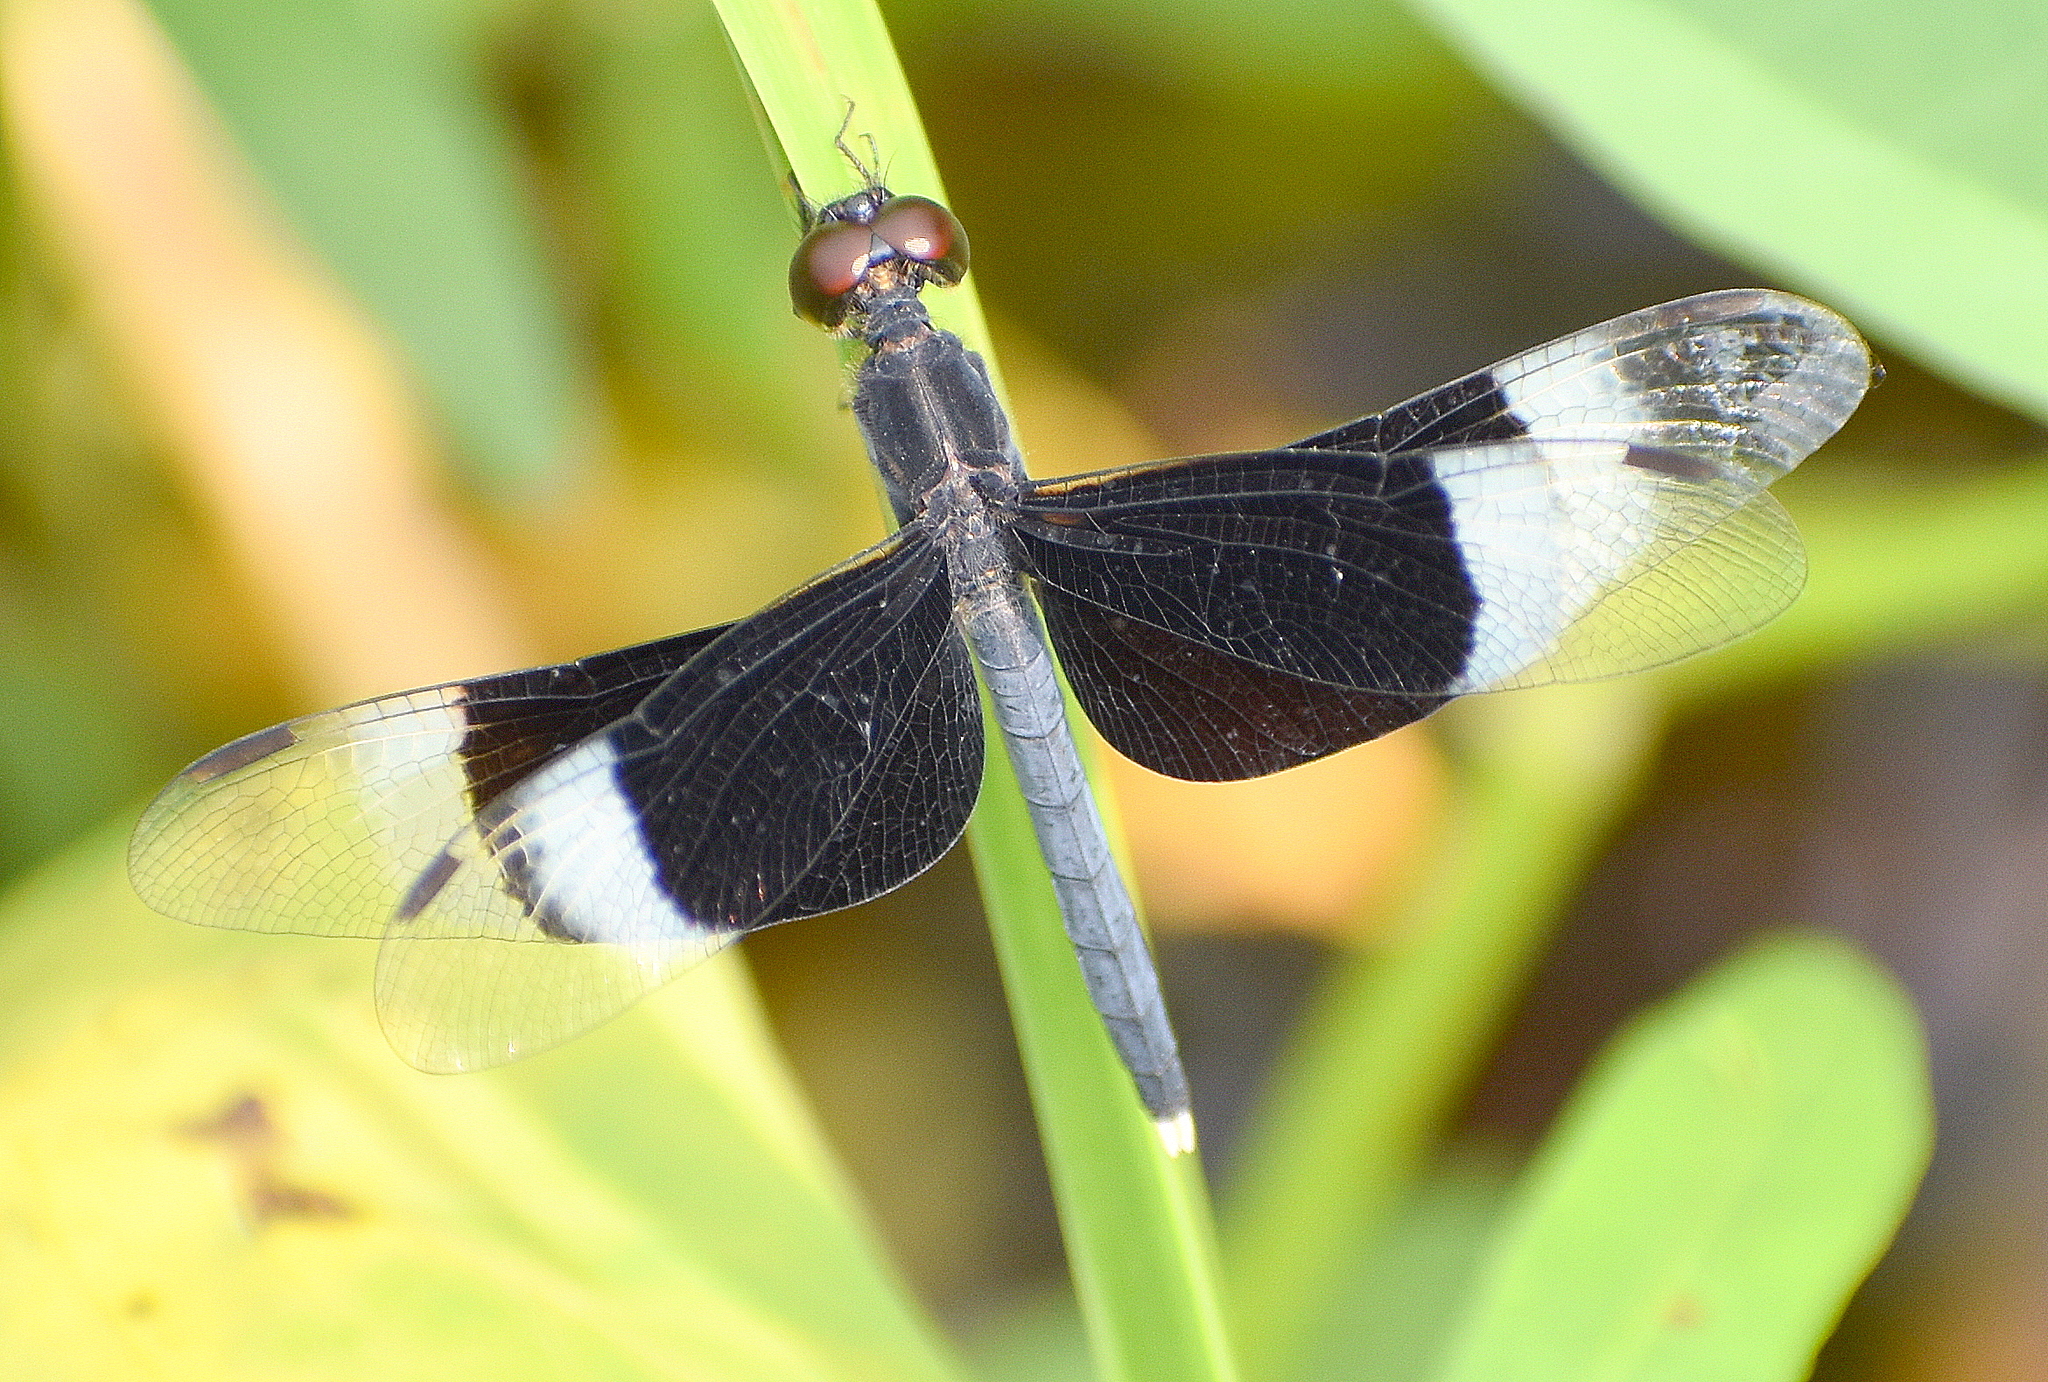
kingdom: Animalia
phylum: Arthropoda
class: Insecta
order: Odonata
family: Libellulidae
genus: Neurothemis
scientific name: Neurothemis tullia
